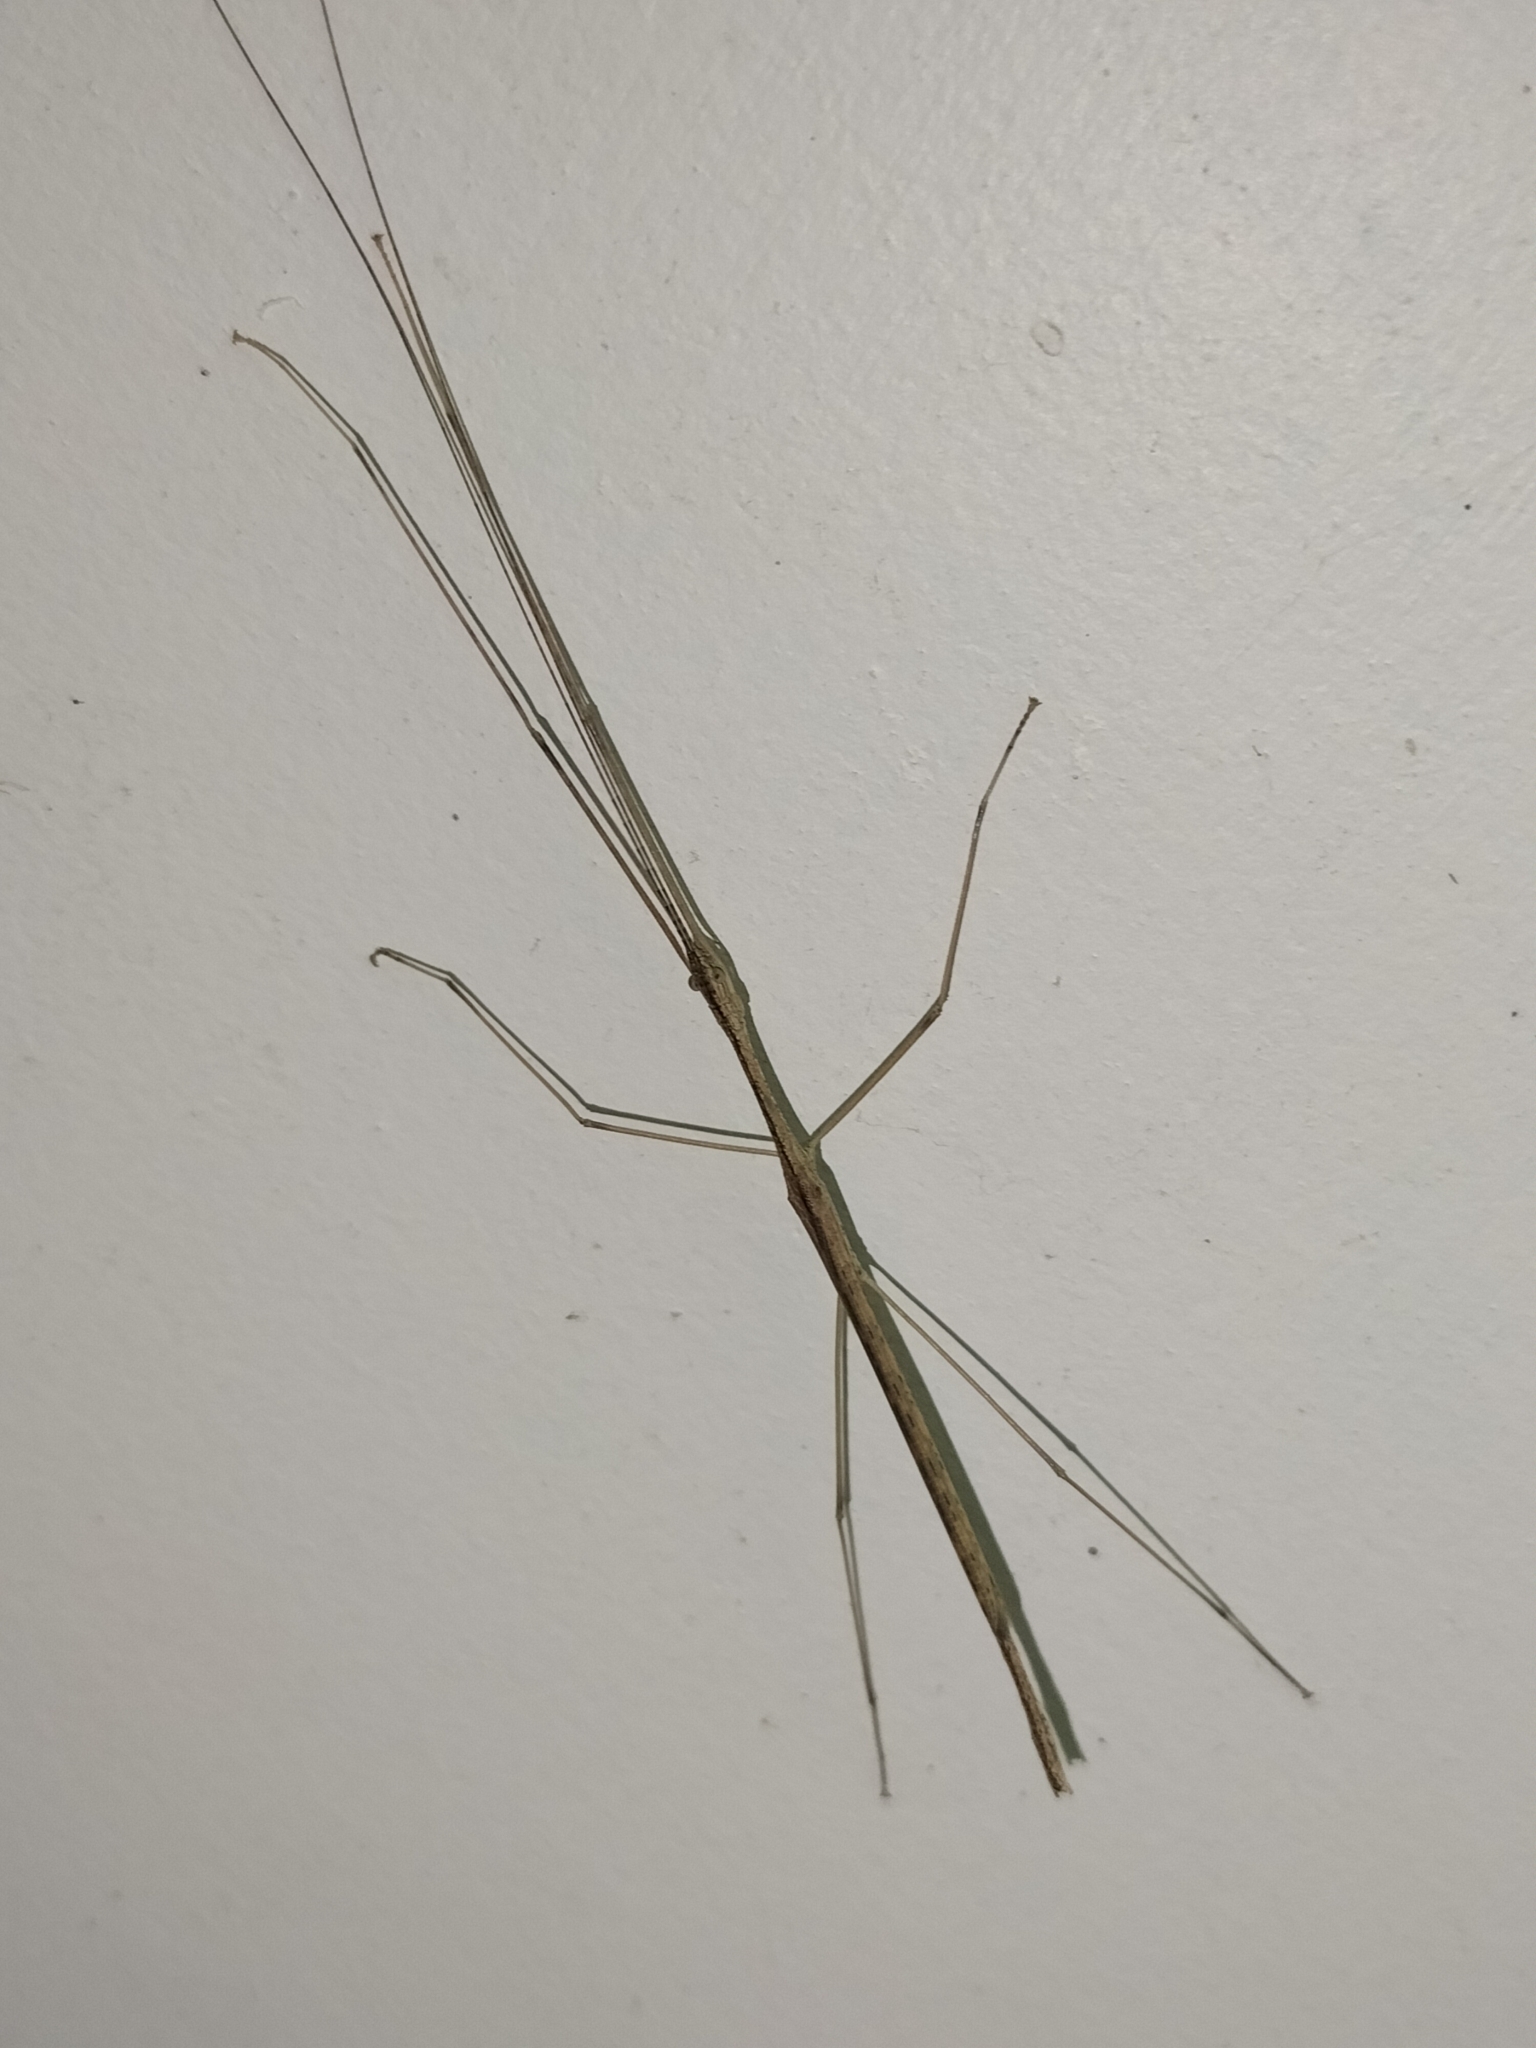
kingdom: Animalia
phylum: Arthropoda
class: Insecta
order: Phasmida
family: Lonchodidae
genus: Scionecra
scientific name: Scionecra queenslandica
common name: Queensland scionecra stick-insect
